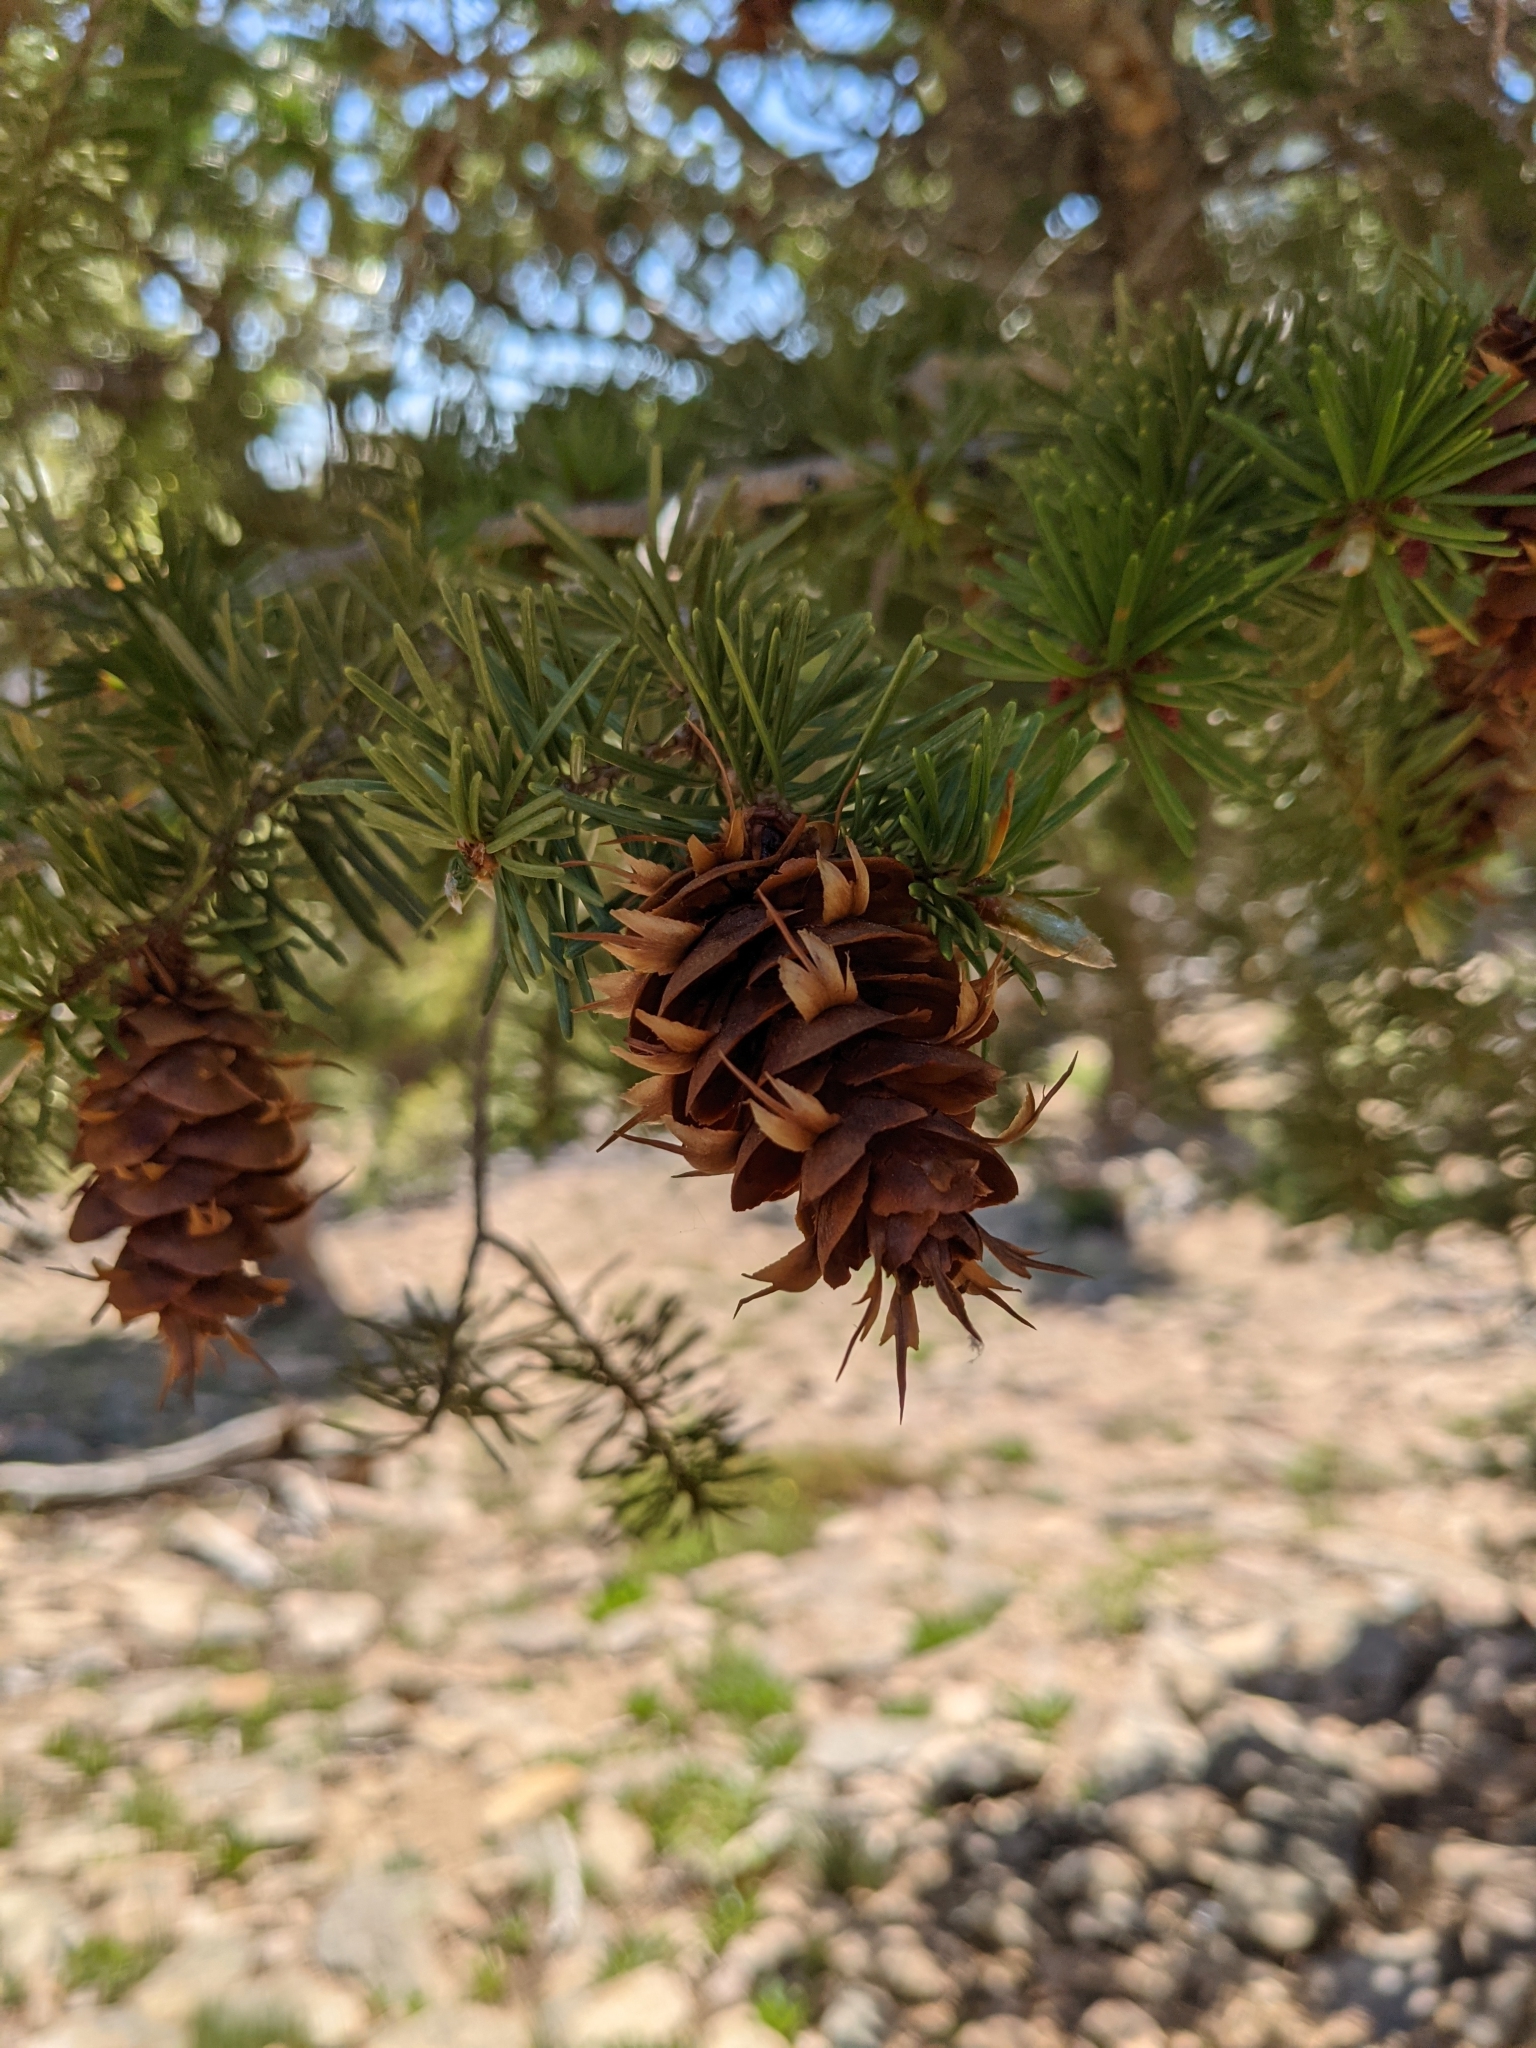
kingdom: Plantae
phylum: Tracheophyta
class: Pinopsida
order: Pinales
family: Pinaceae
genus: Pseudotsuga
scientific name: Pseudotsuga menziesii
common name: Douglas fir
